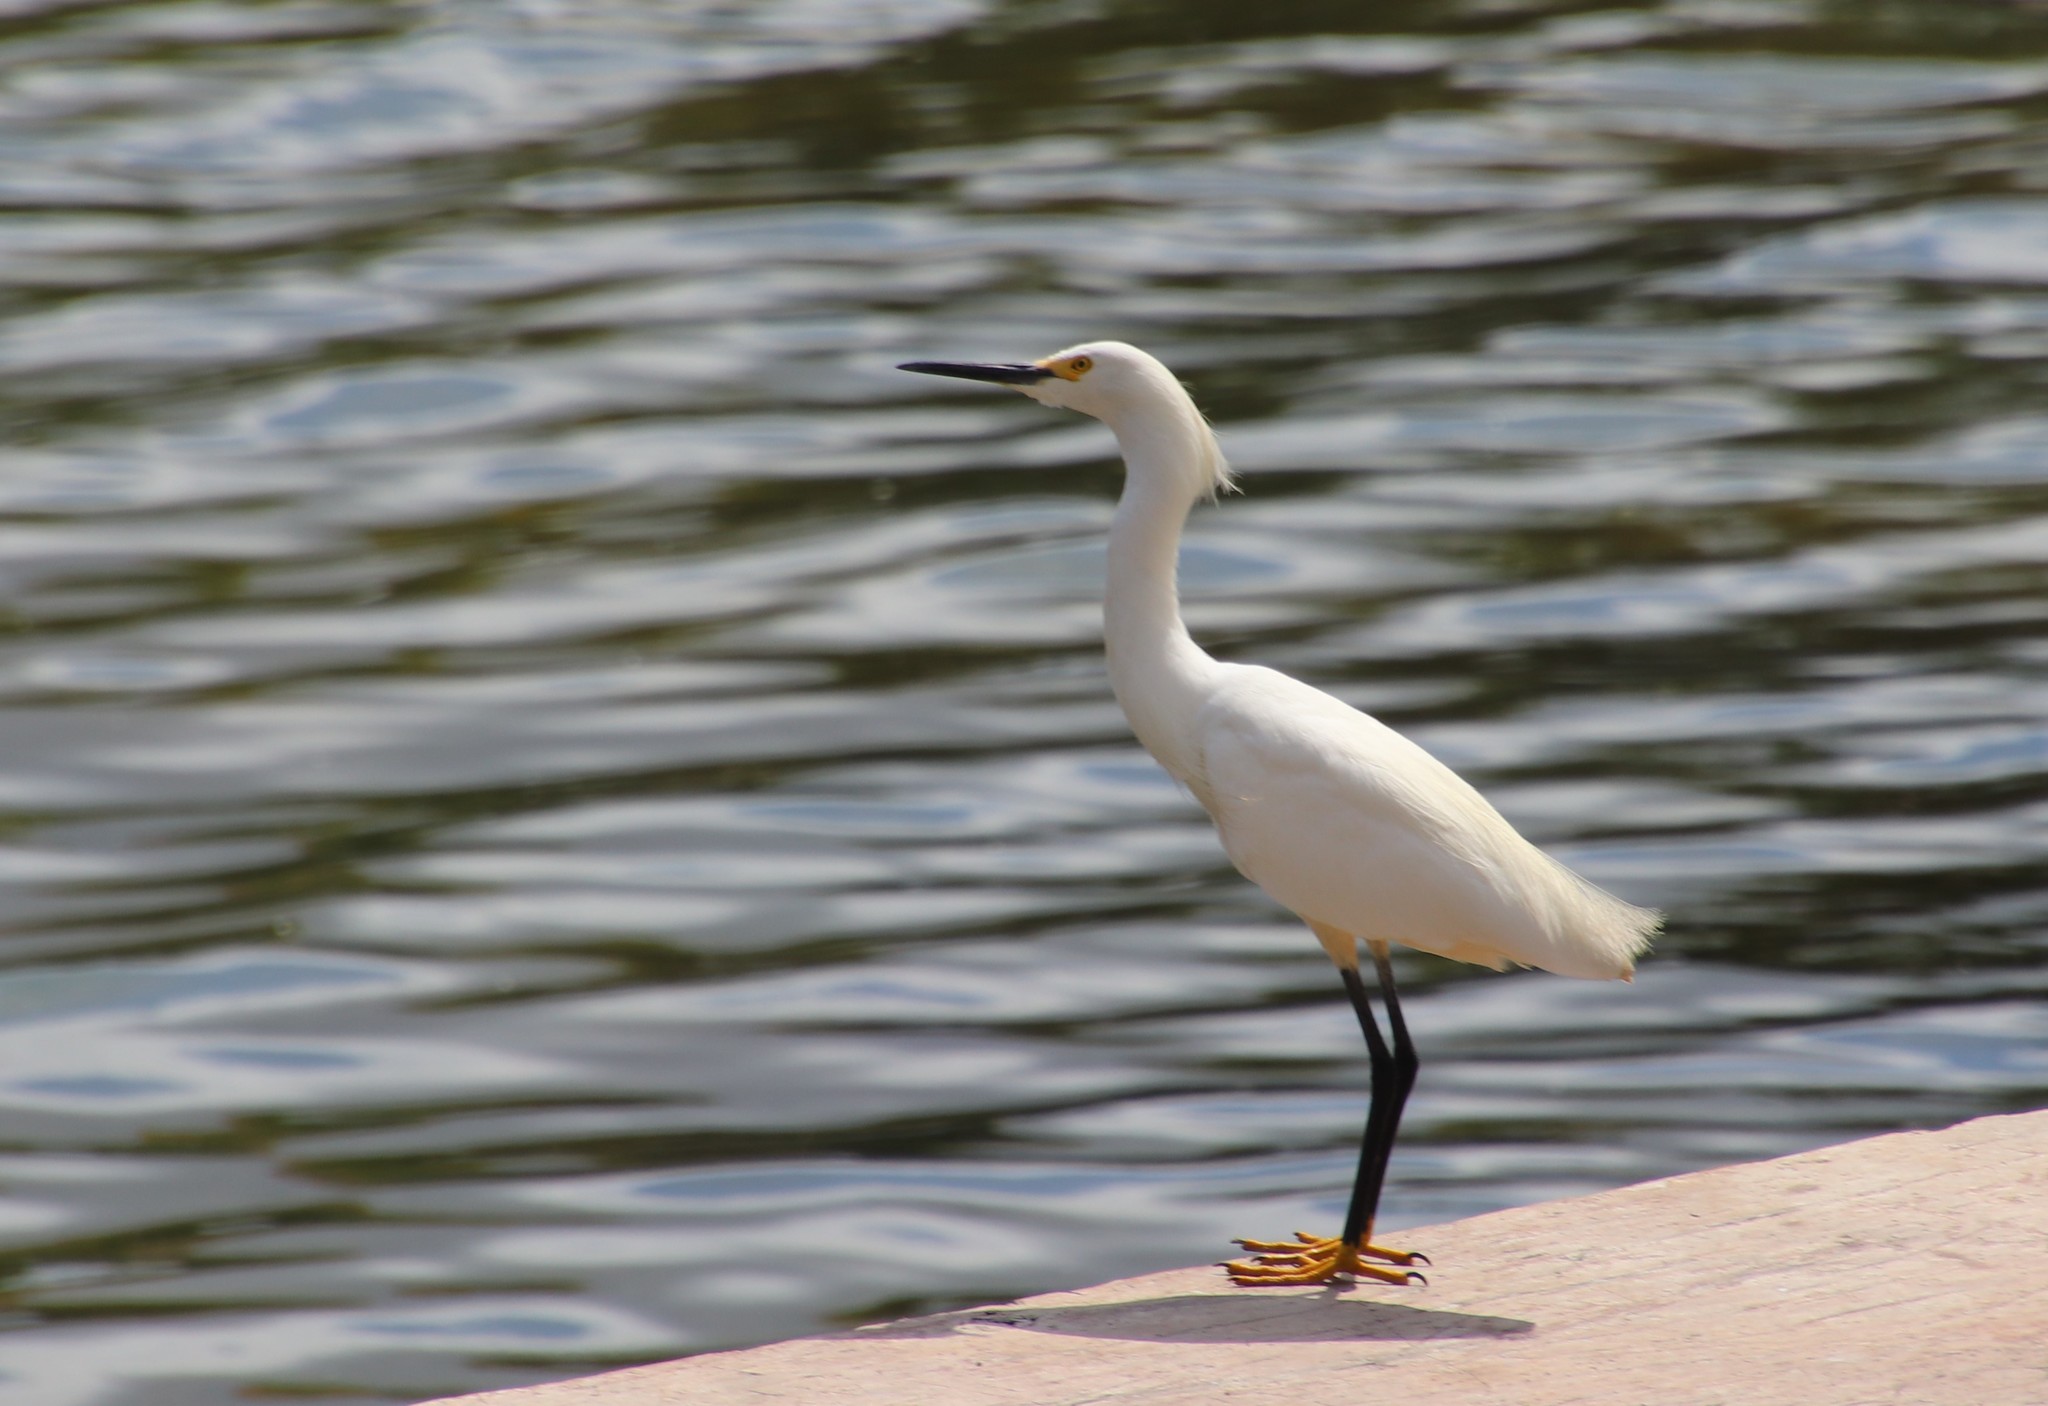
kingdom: Animalia
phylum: Chordata
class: Aves
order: Pelecaniformes
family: Ardeidae
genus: Egretta
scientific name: Egretta thula
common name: Snowy egret
